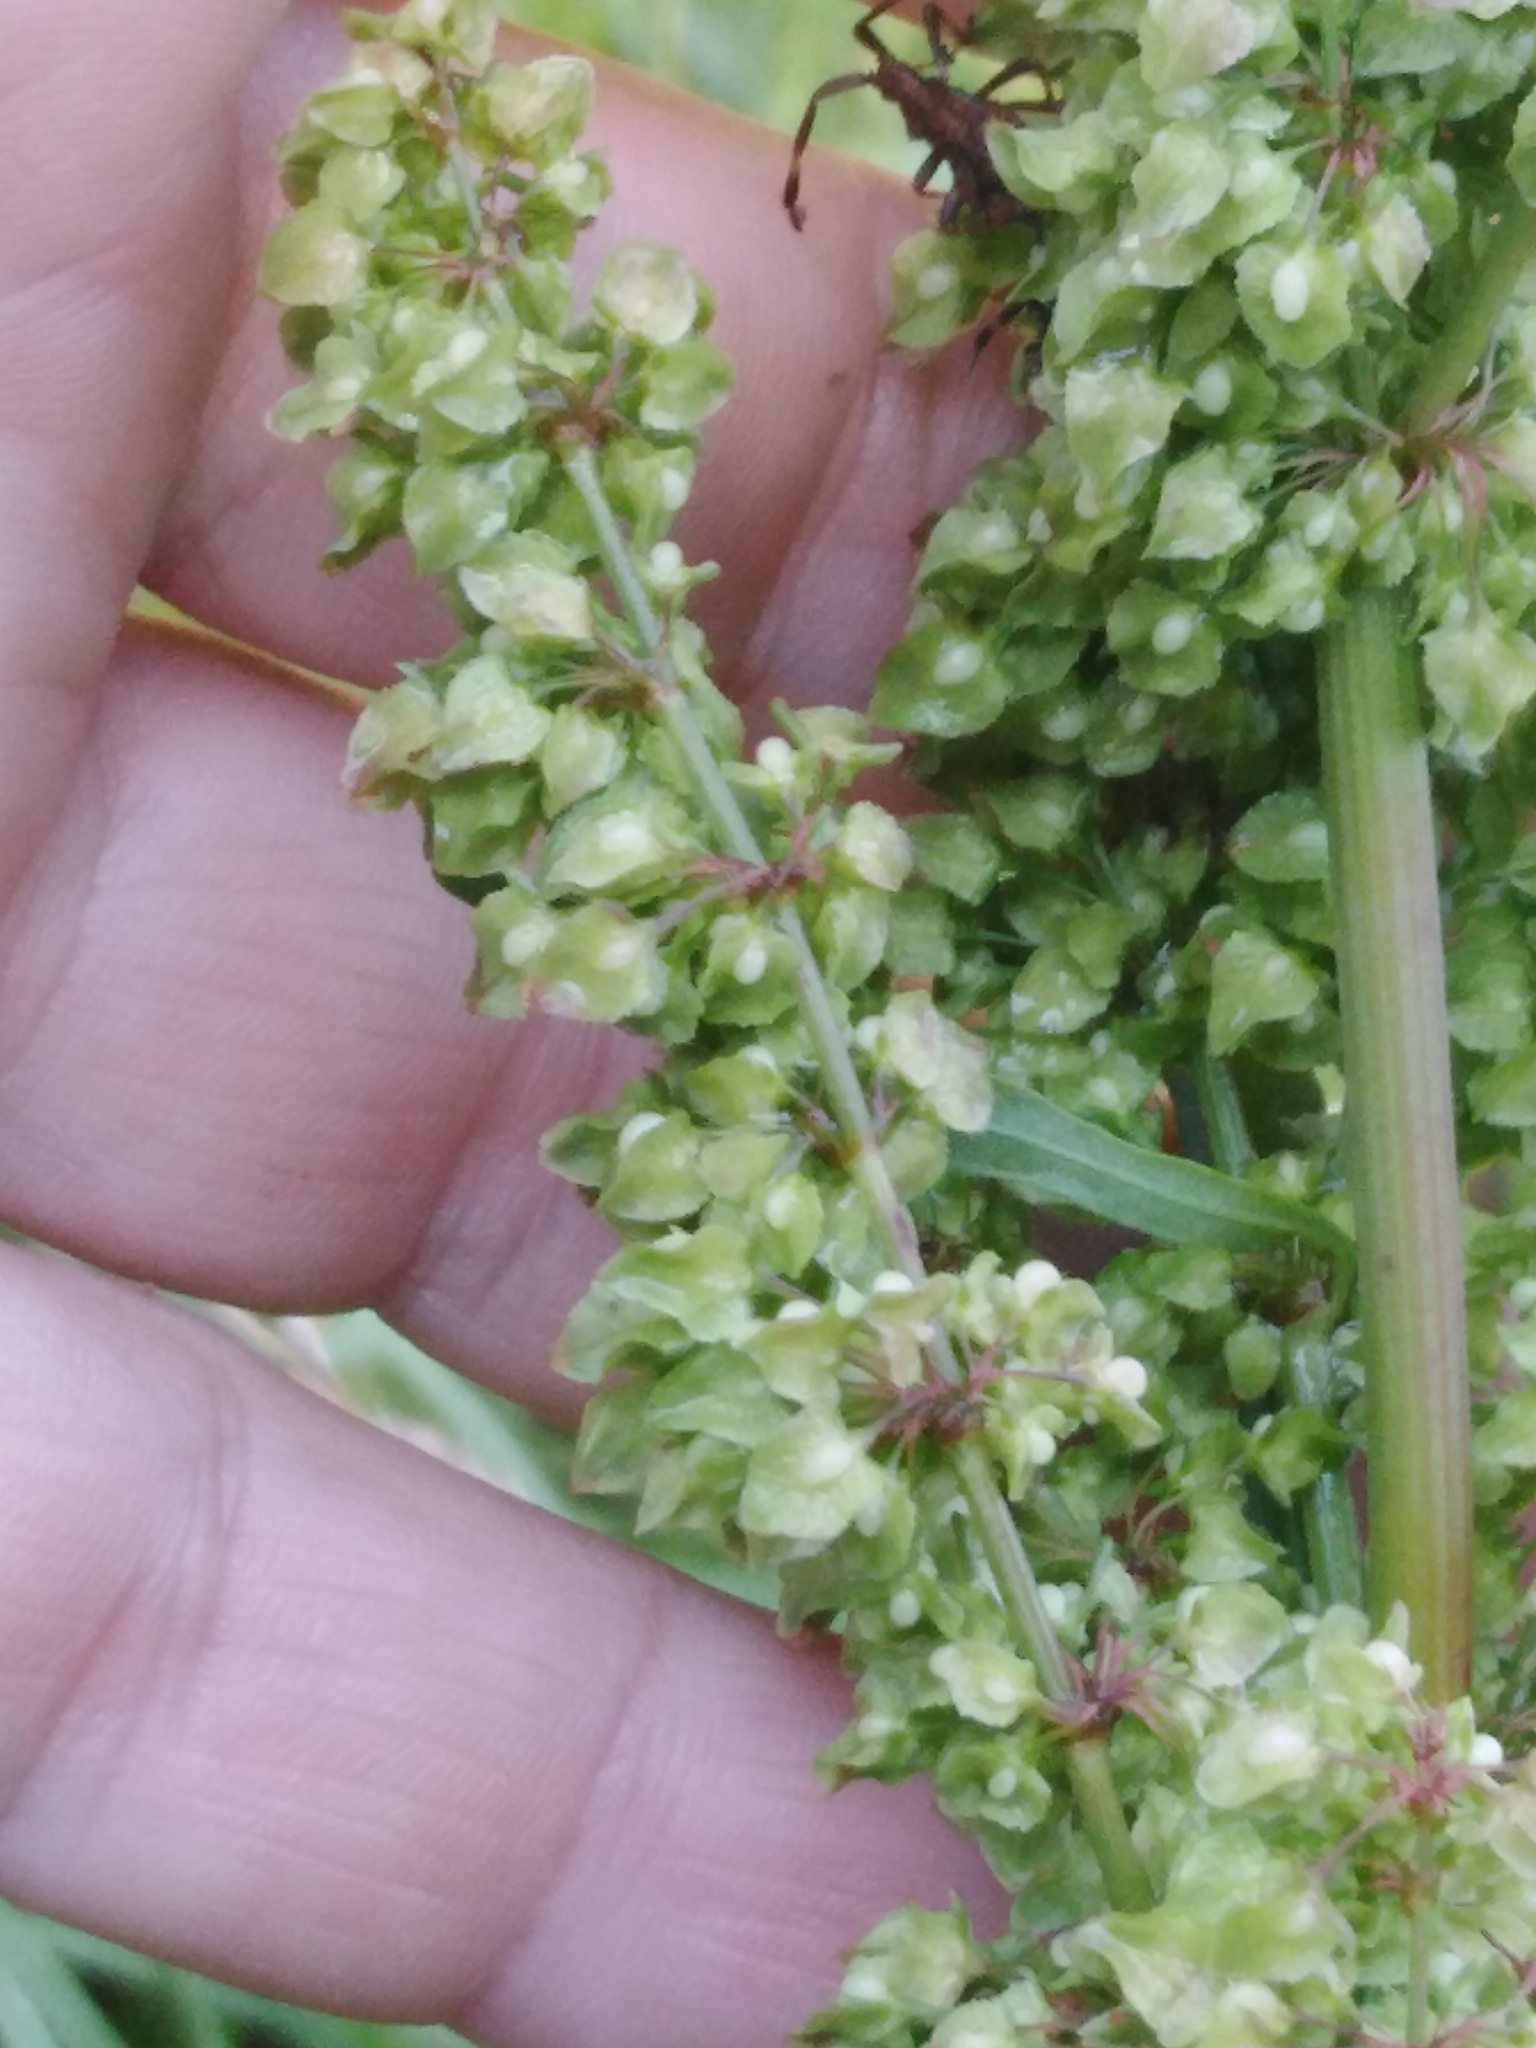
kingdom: Plantae
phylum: Tracheophyta
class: Magnoliopsida
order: Caryophyllales
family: Polygonaceae
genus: Rumex
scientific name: Rumex crispus
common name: Curled dock
